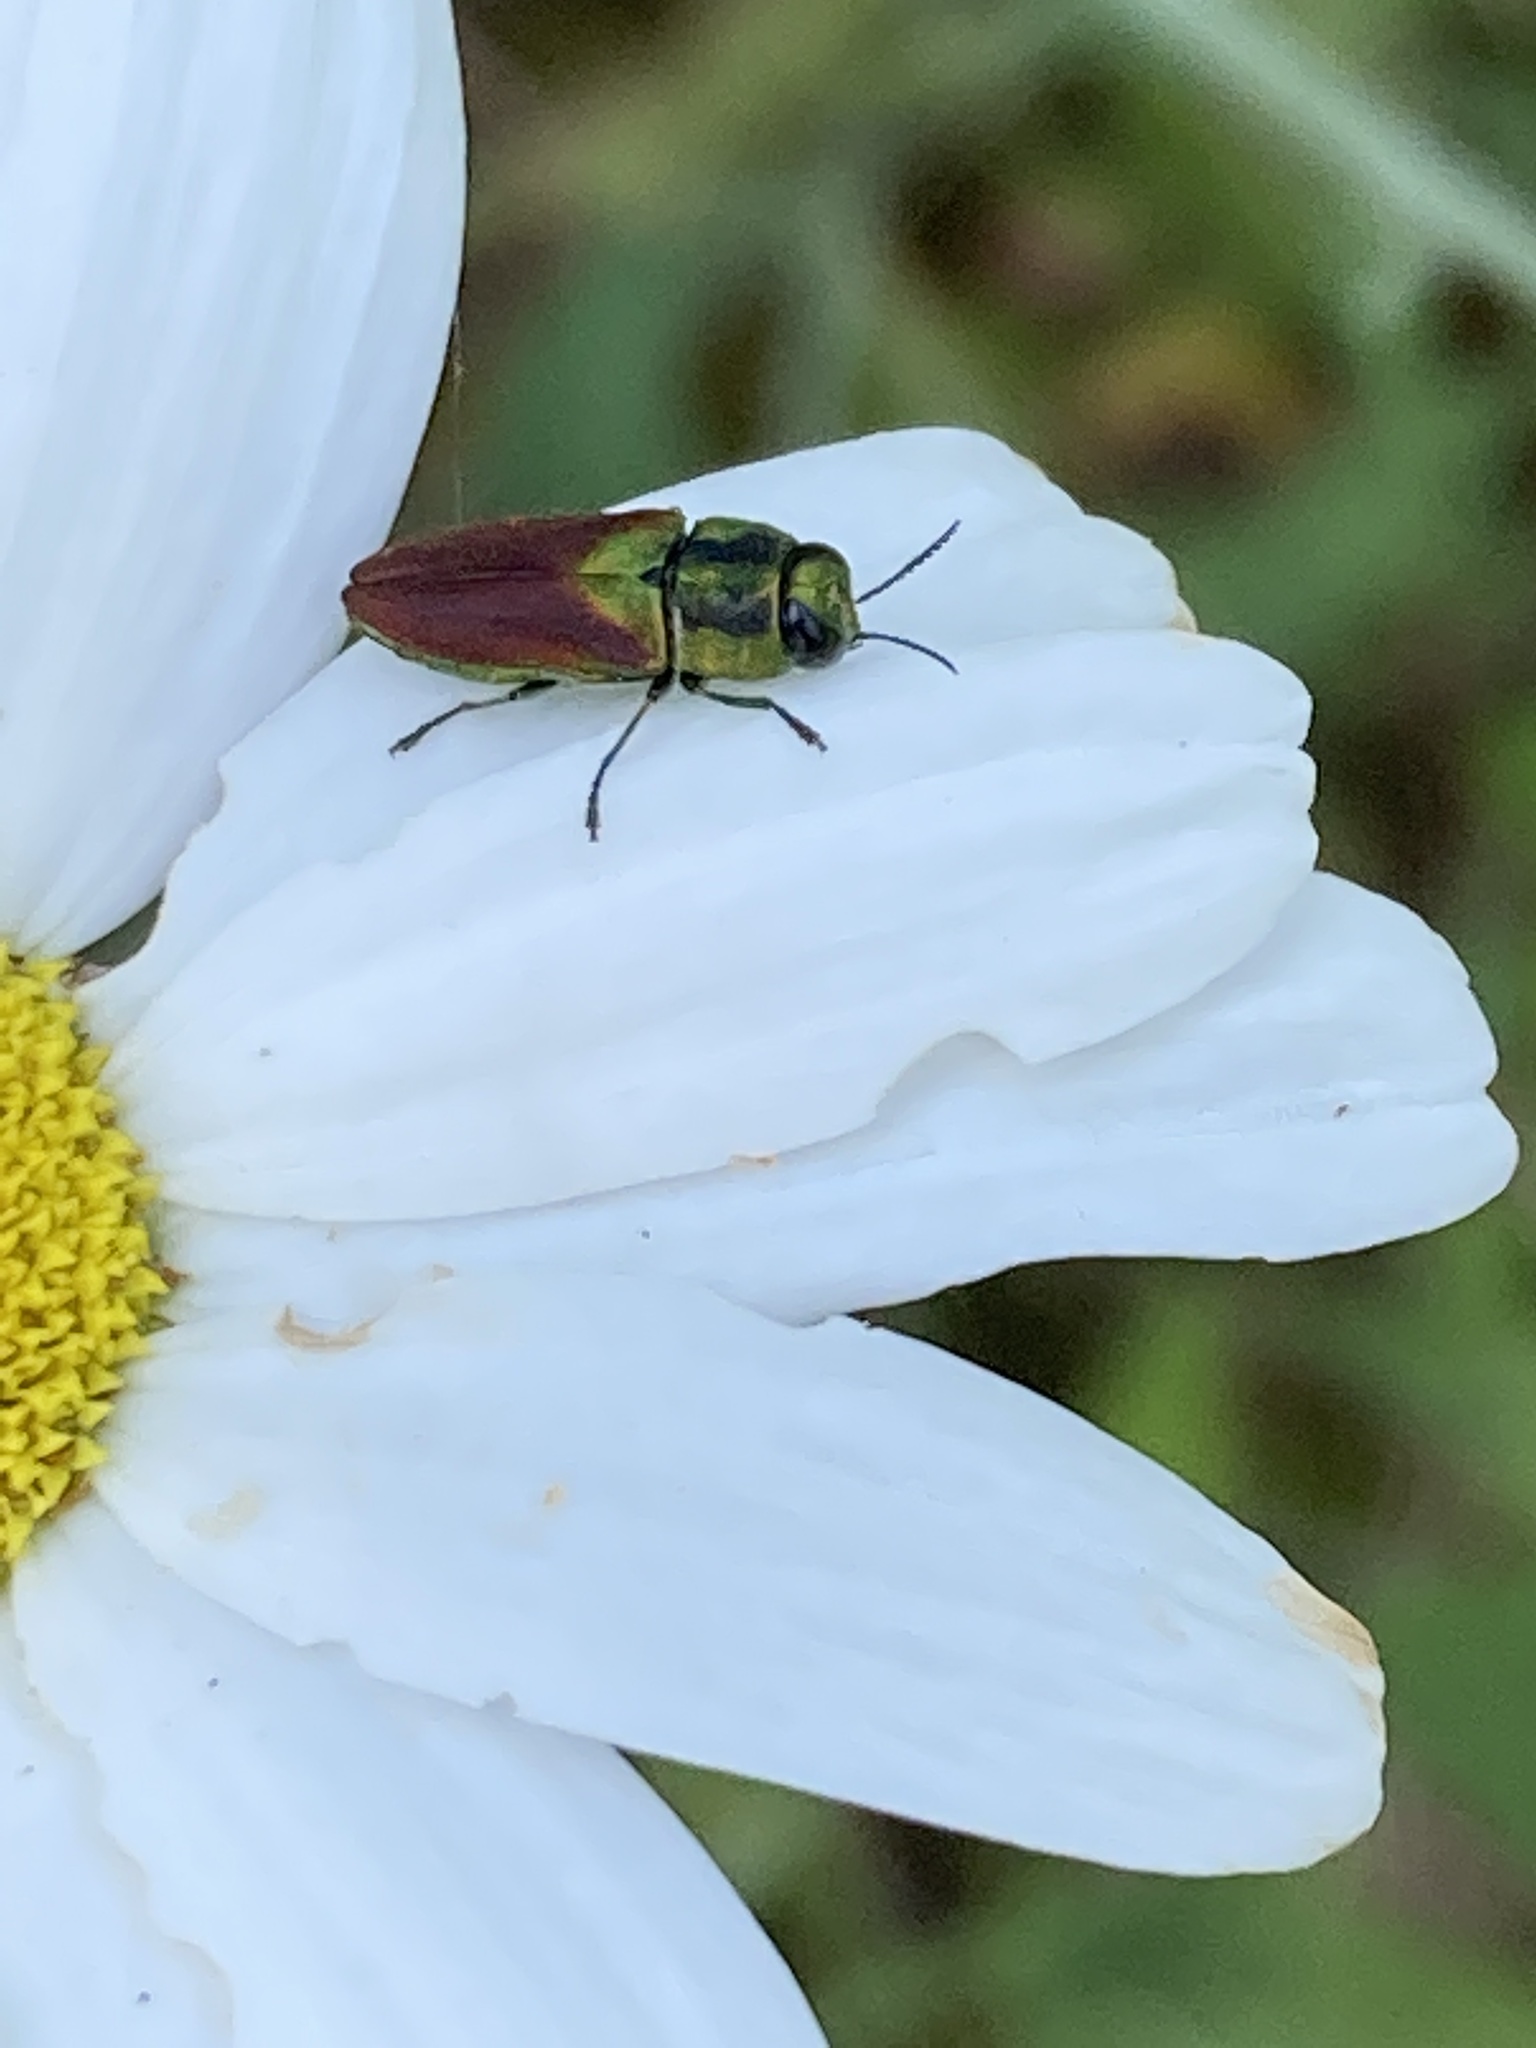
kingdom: Animalia
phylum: Arthropoda
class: Insecta
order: Coleoptera
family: Buprestidae
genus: Anthaxia
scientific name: Anthaxia passerinii
